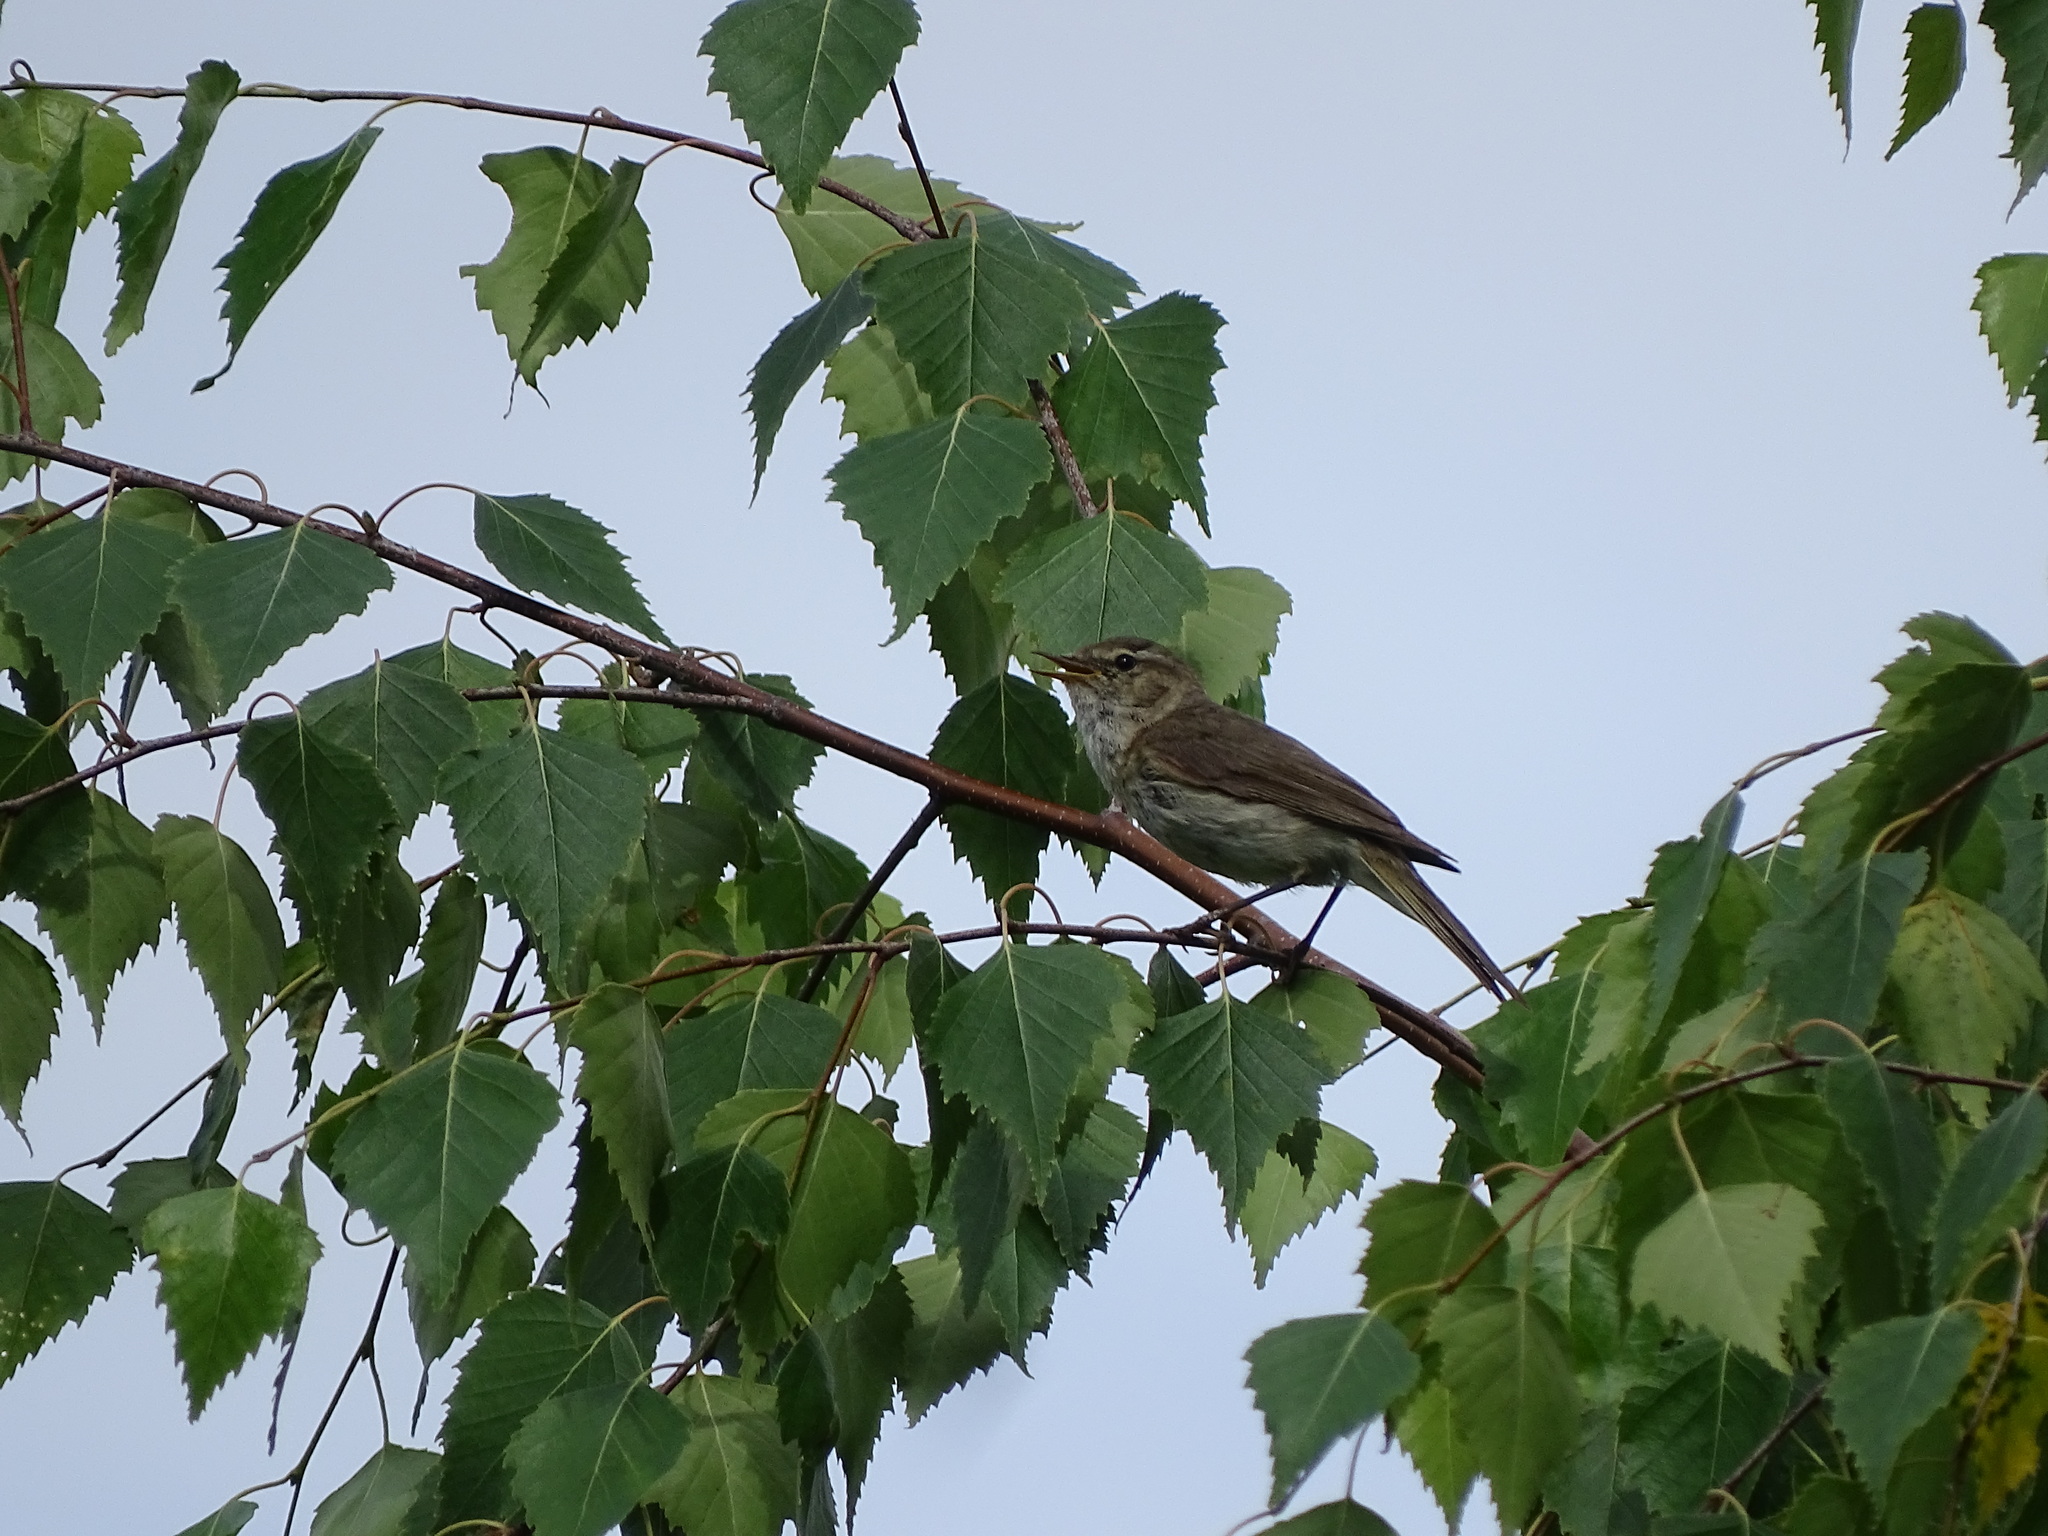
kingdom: Animalia
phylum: Chordata
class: Aves
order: Passeriformes
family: Phylloscopidae
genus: Phylloscopus
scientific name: Phylloscopus collybita
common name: Common chiffchaff
